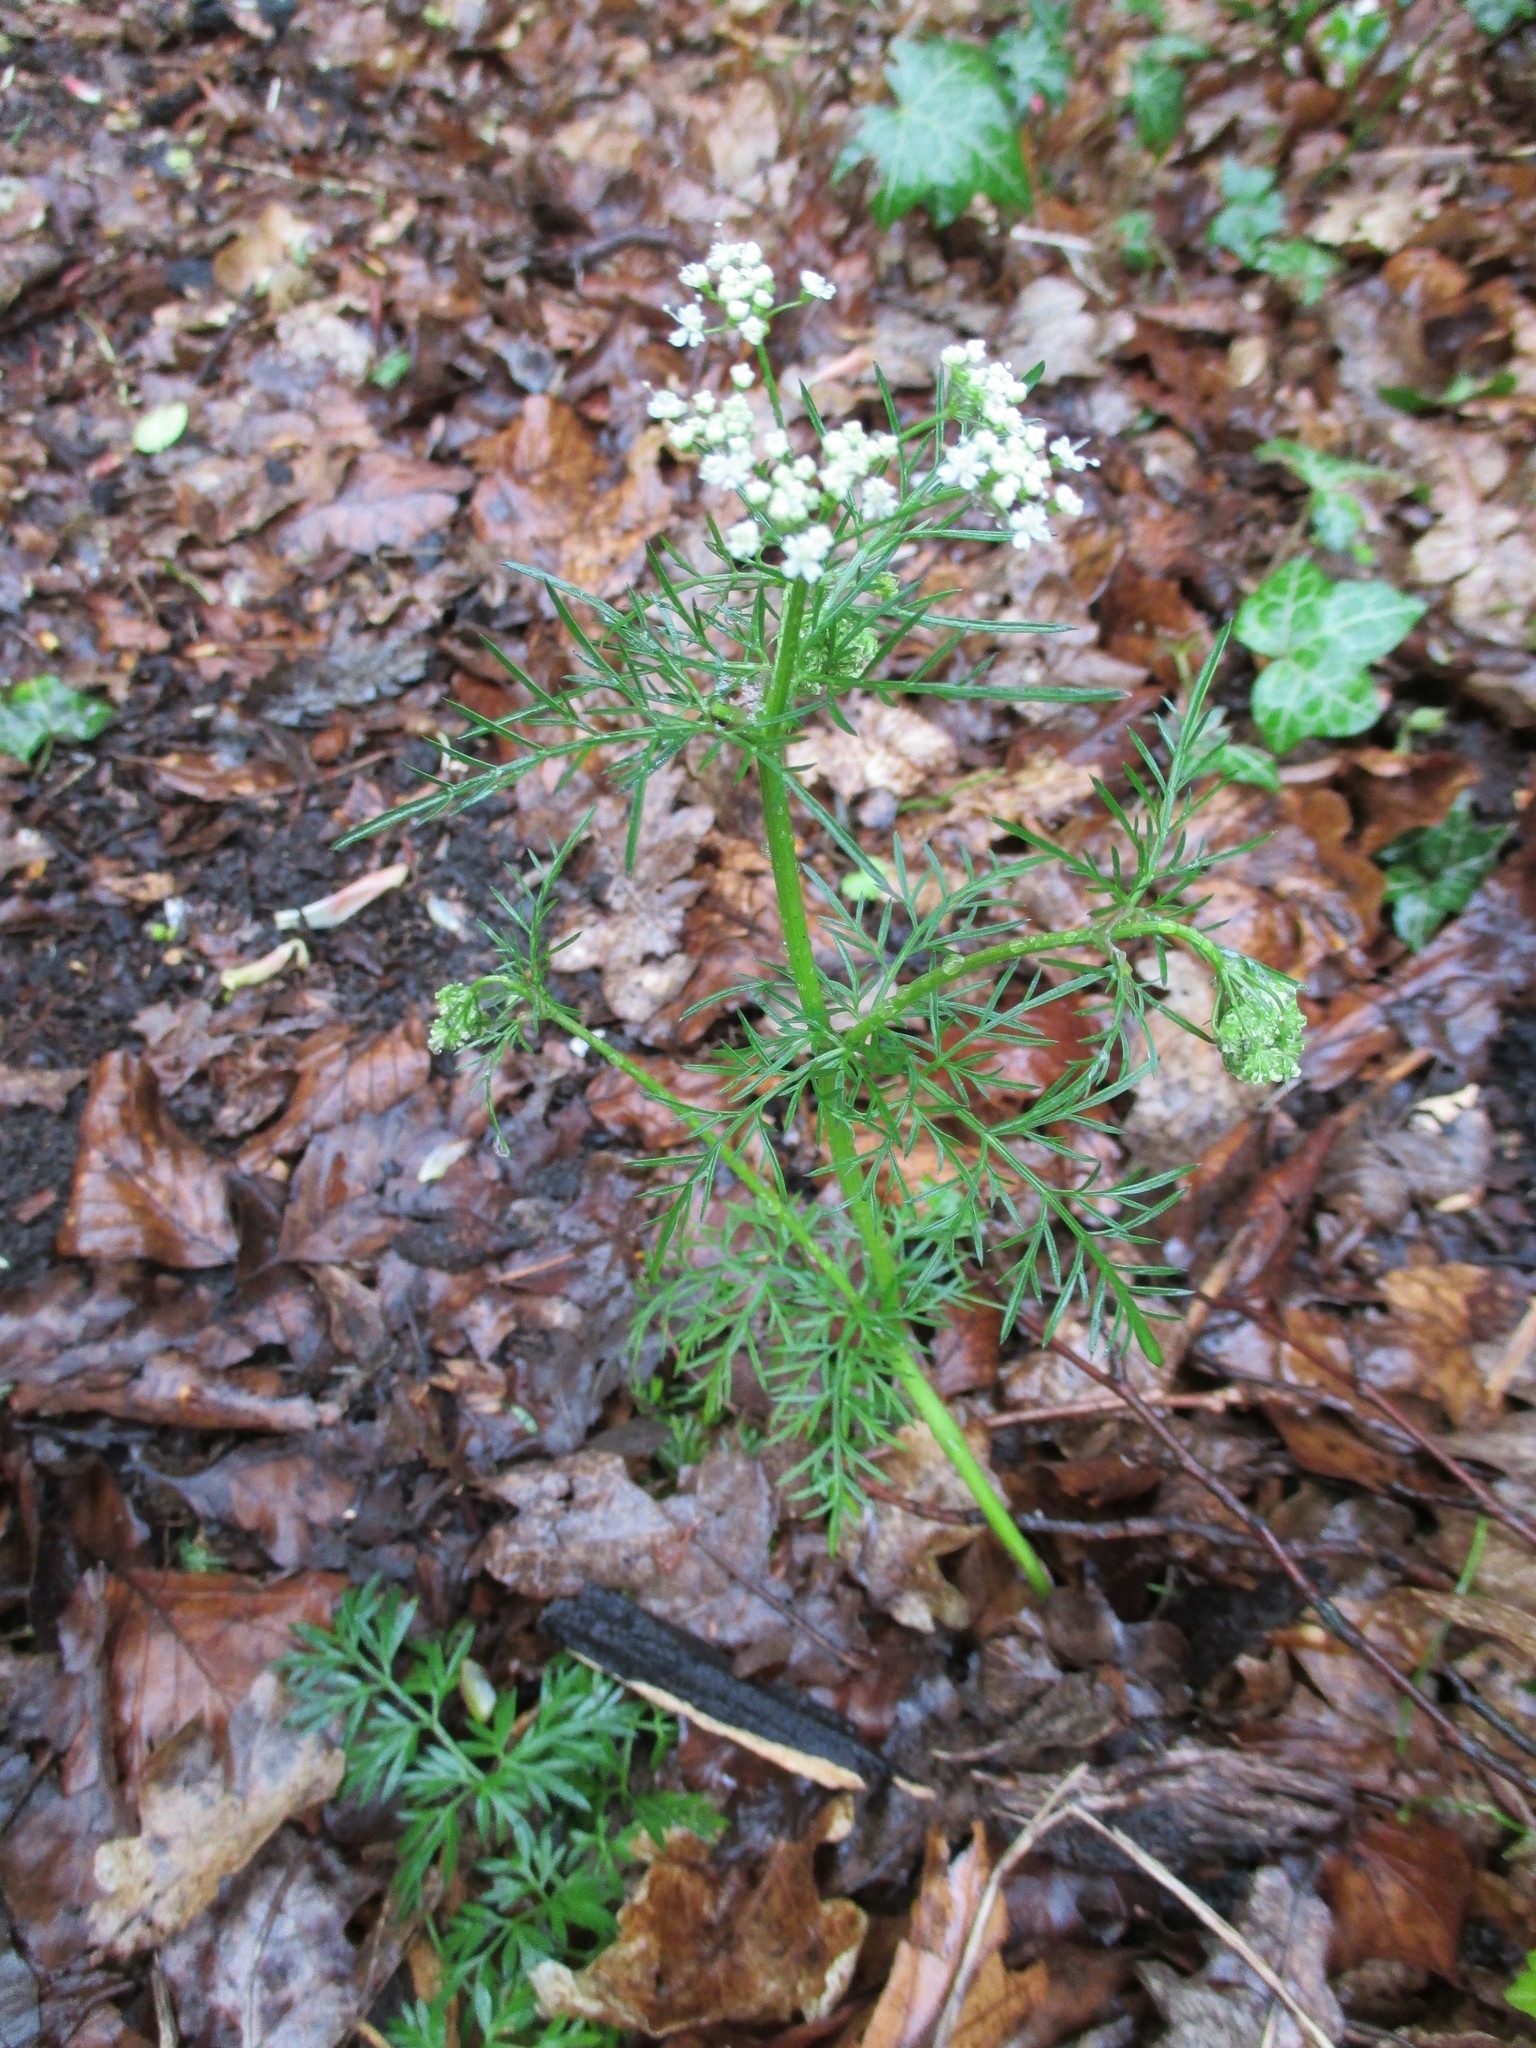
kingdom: Plantae
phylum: Tracheophyta
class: Magnoliopsida
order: Apiales
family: Apiaceae
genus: Conopodium
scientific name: Conopodium majus
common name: Pignut
